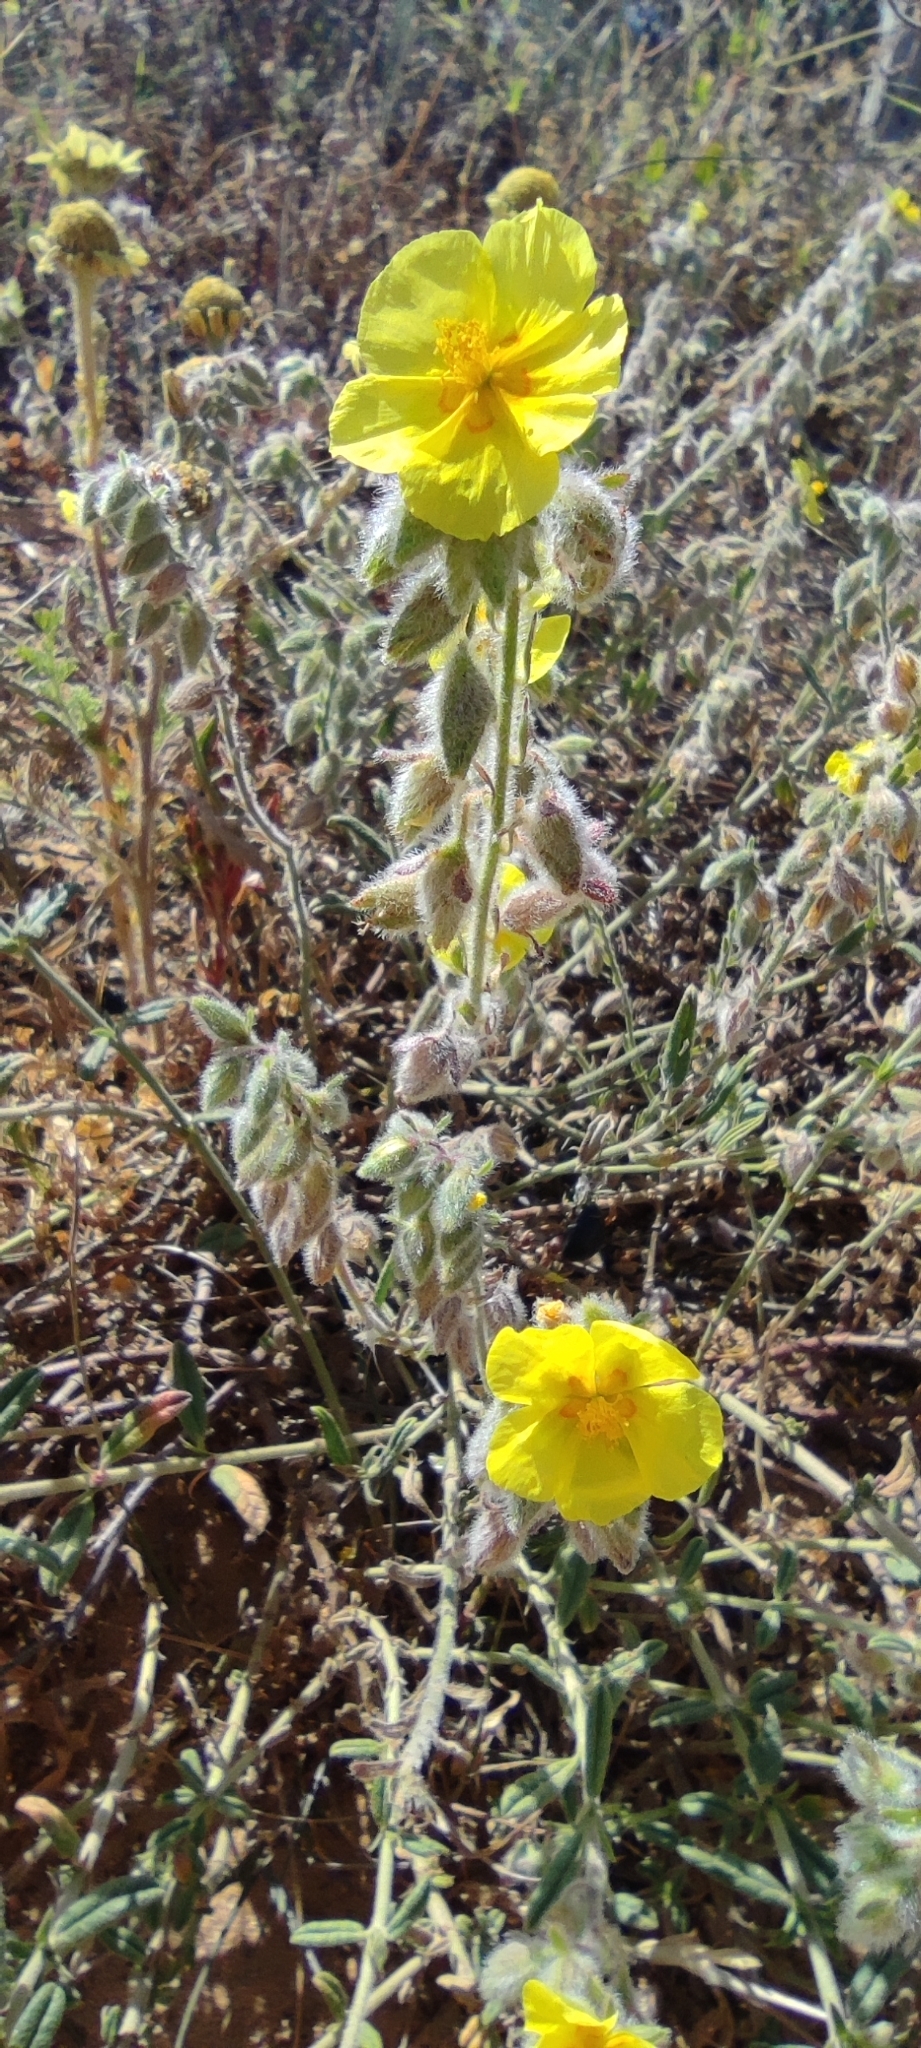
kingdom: Plantae
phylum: Tracheophyta
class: Magnoliopsida
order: Malvales
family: Cistaceae
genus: Helianthemum
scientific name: Helianthemum hirtum
